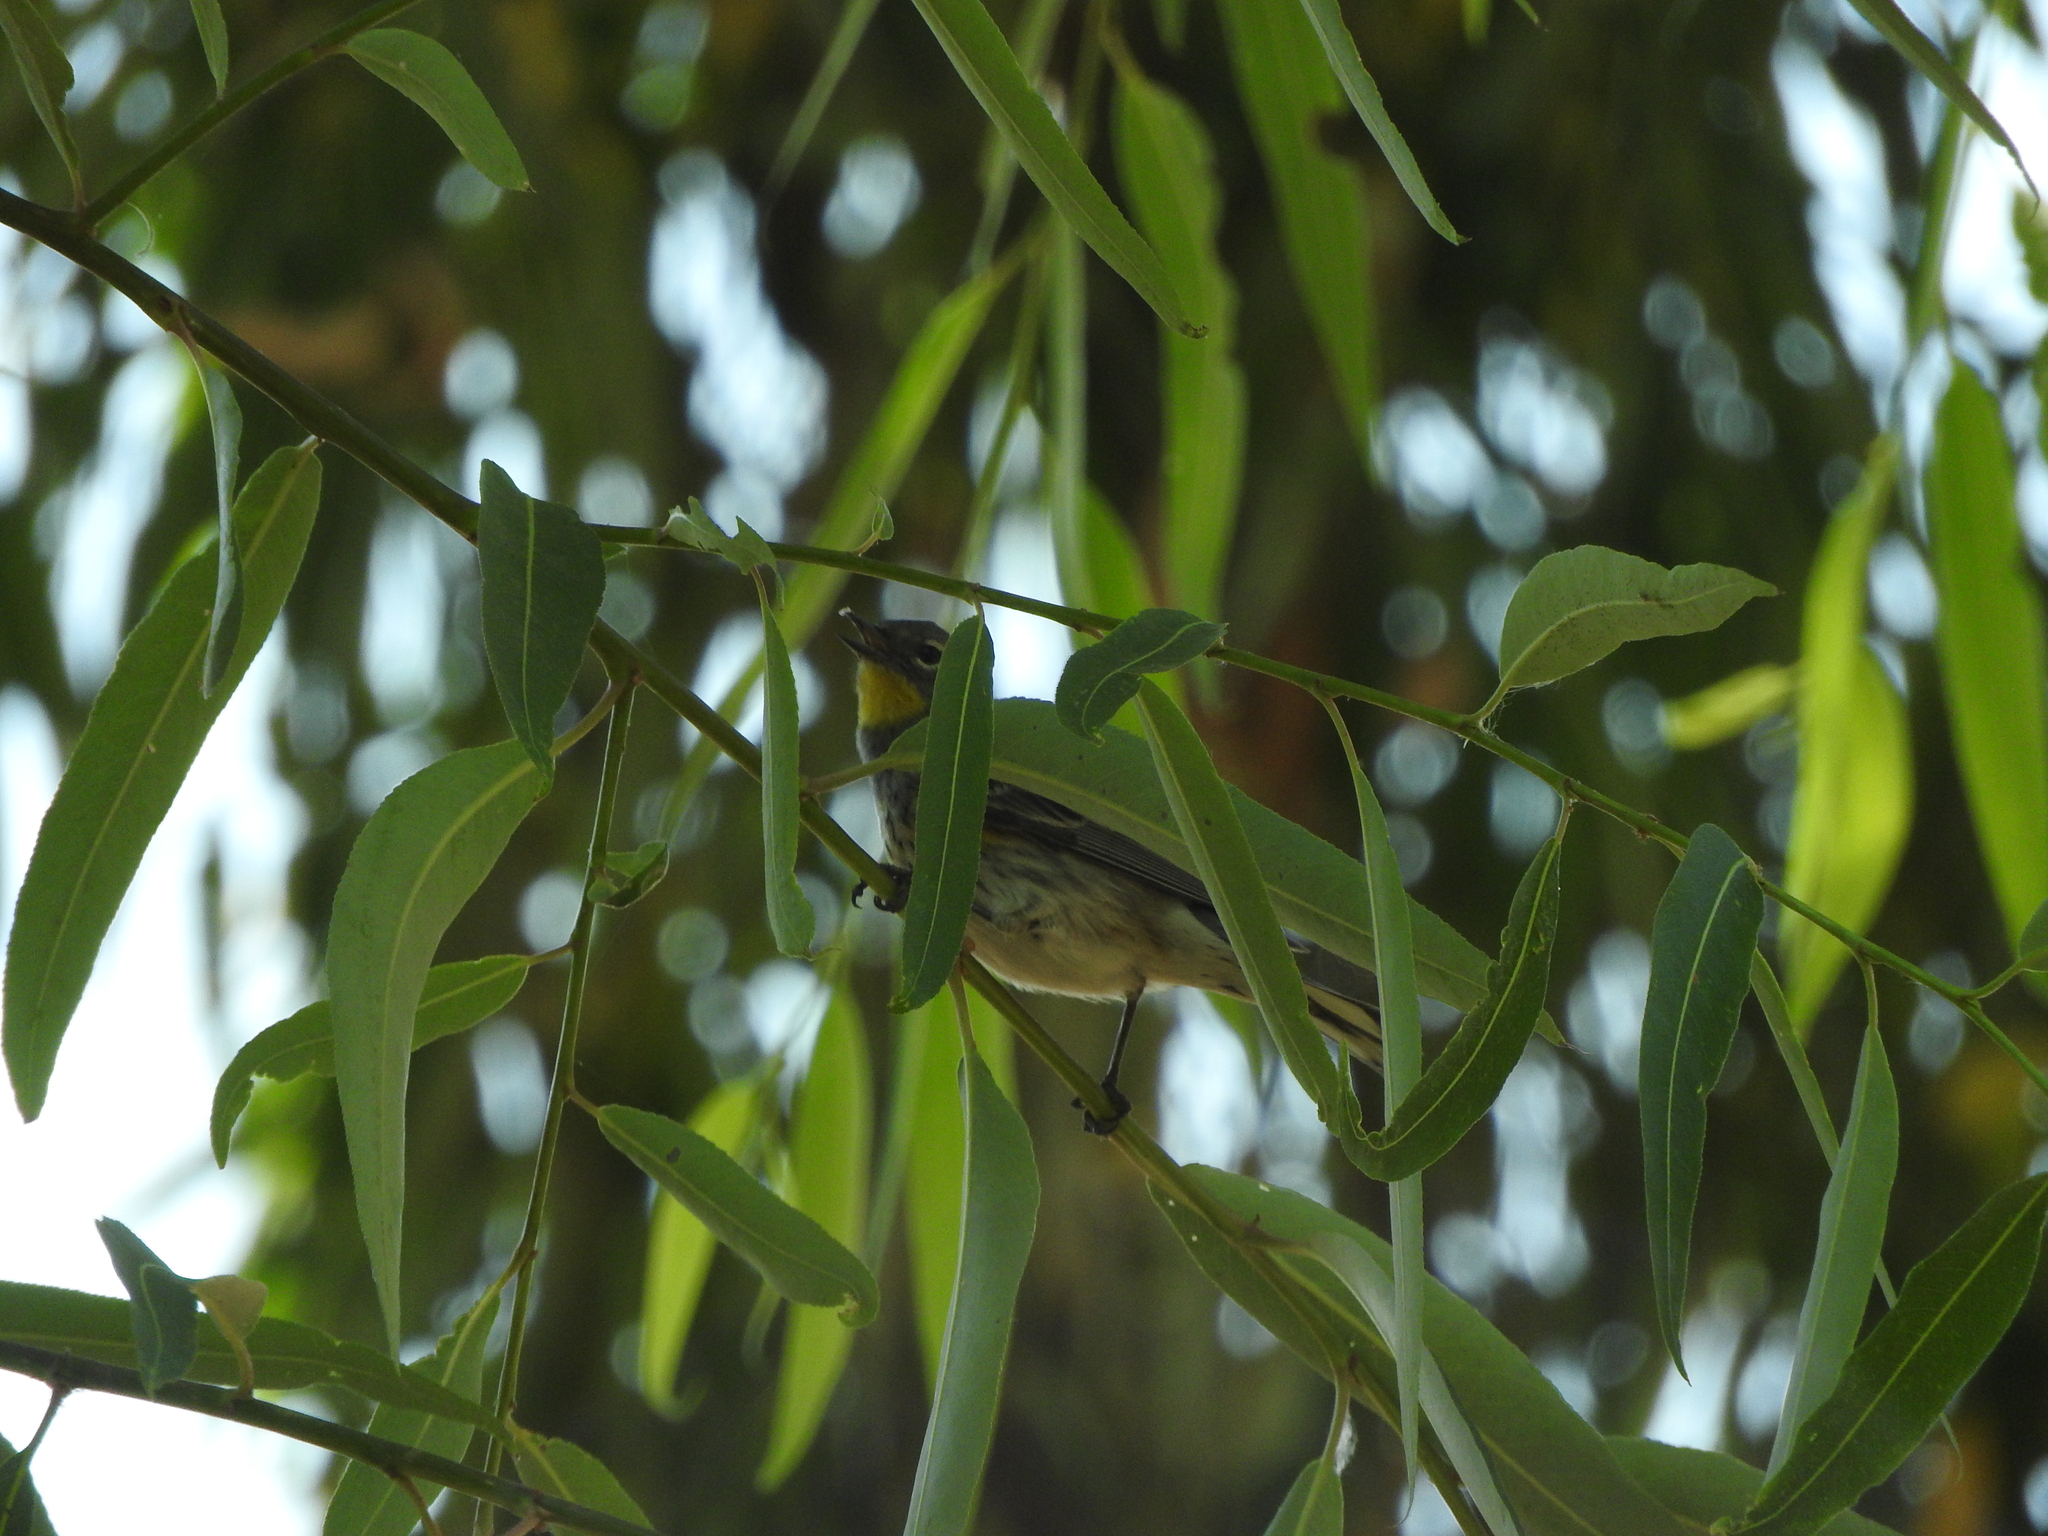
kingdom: Animalia
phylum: Chordata
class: Aves
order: Passeriformes
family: Parulidae
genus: Setophaga
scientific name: Setophaga coronata
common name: Myrtle warbler
